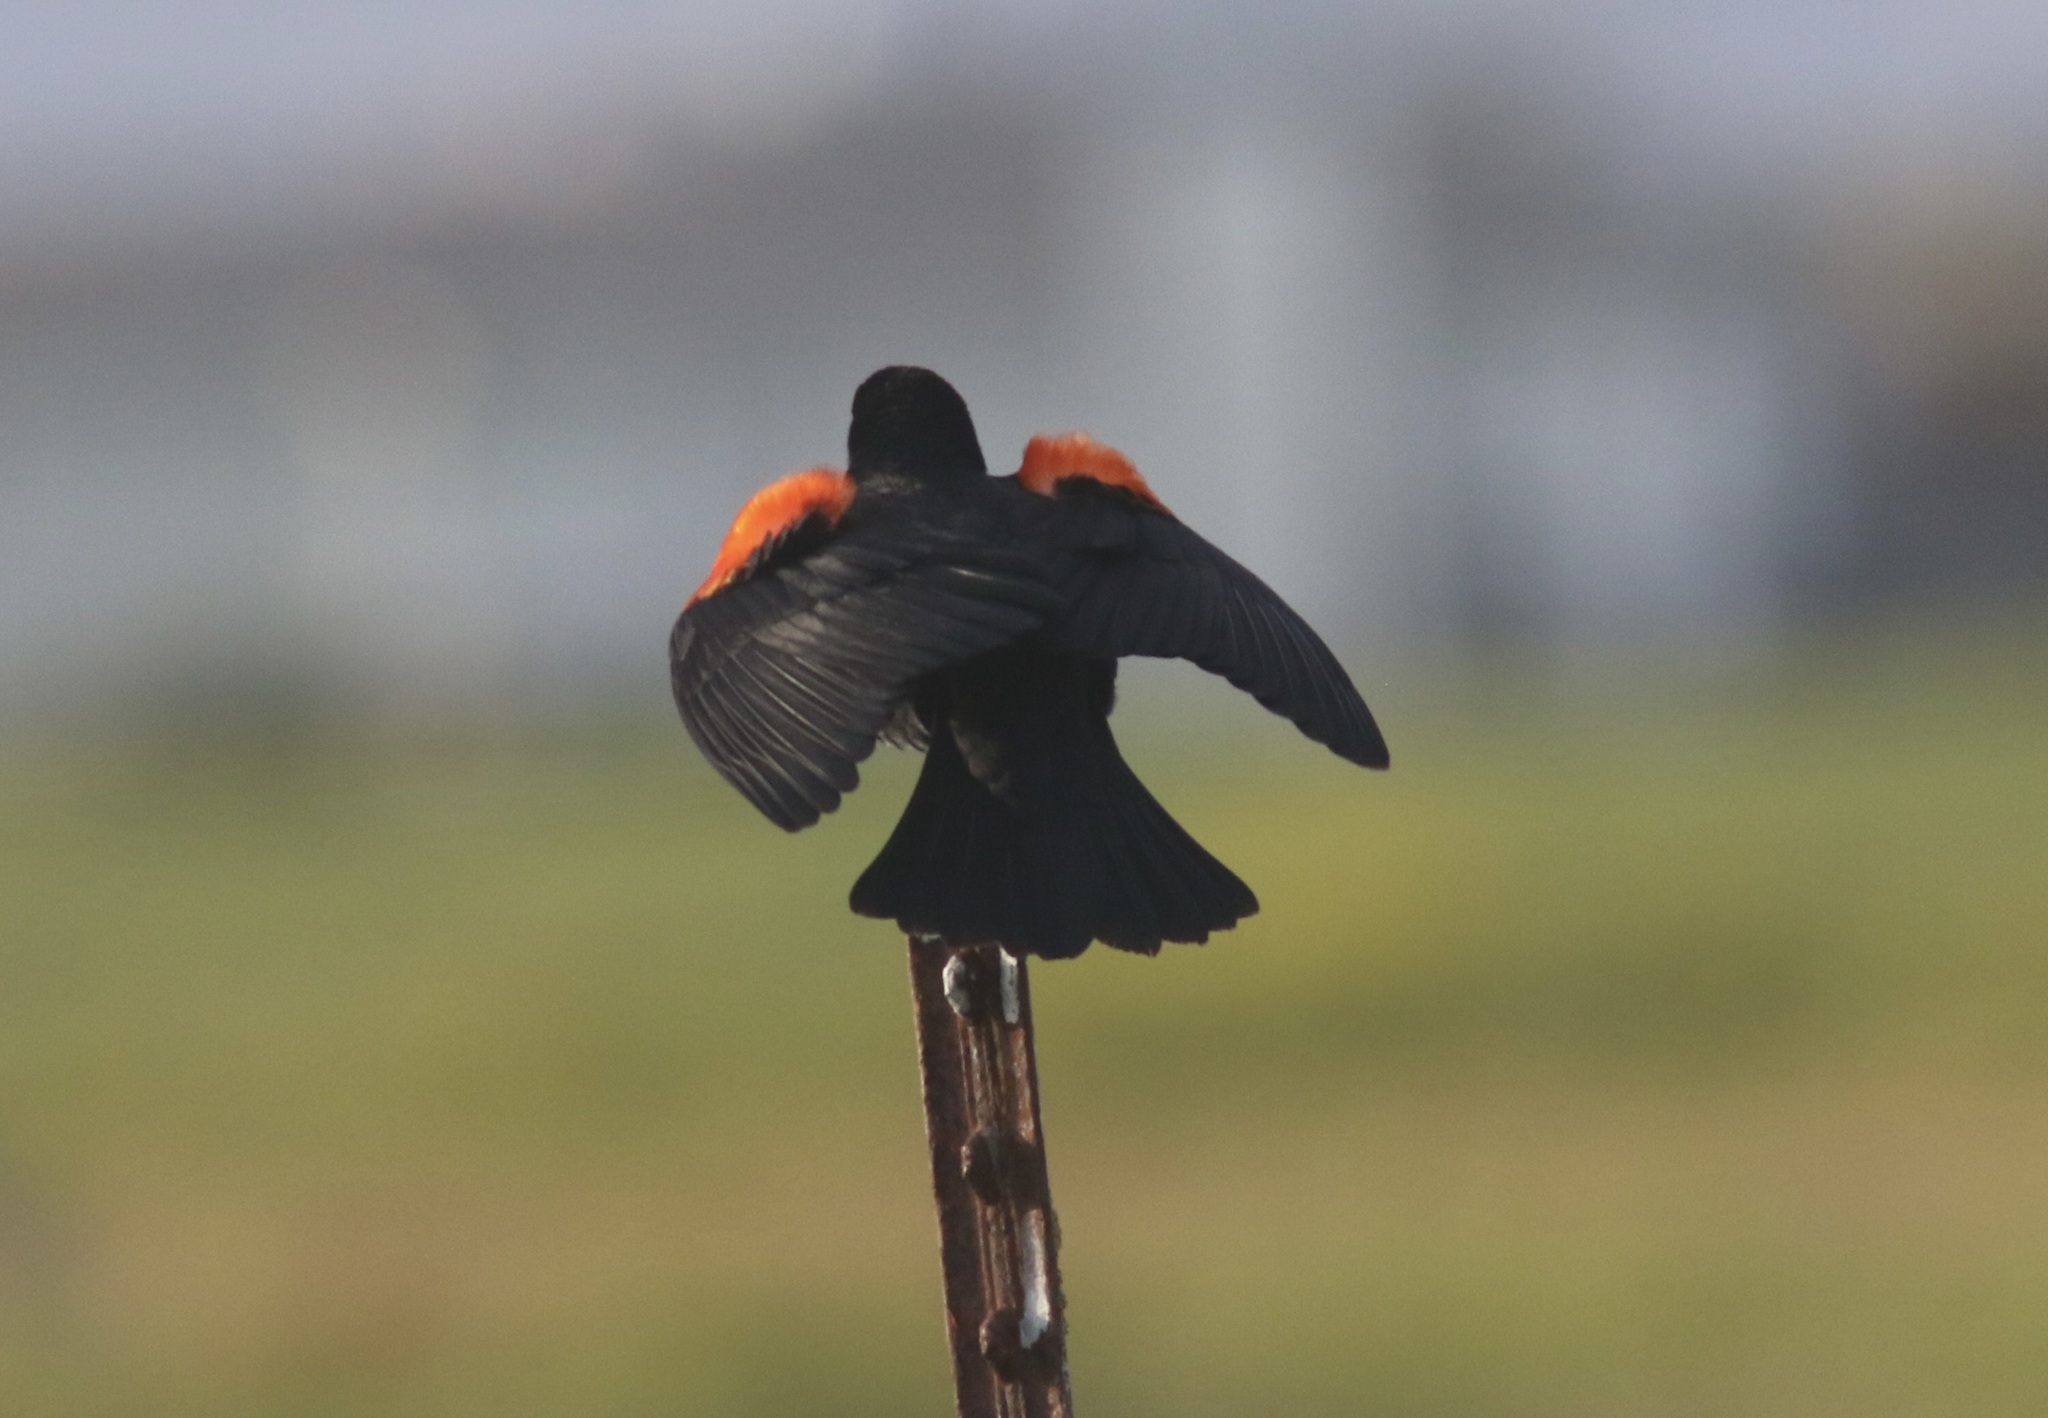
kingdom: Animalia
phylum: Chordata
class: Aves
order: Passeriformes
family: Icteridae
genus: Agelaius
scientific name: Agelaius phoeniceus
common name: Red-winged blackbird
